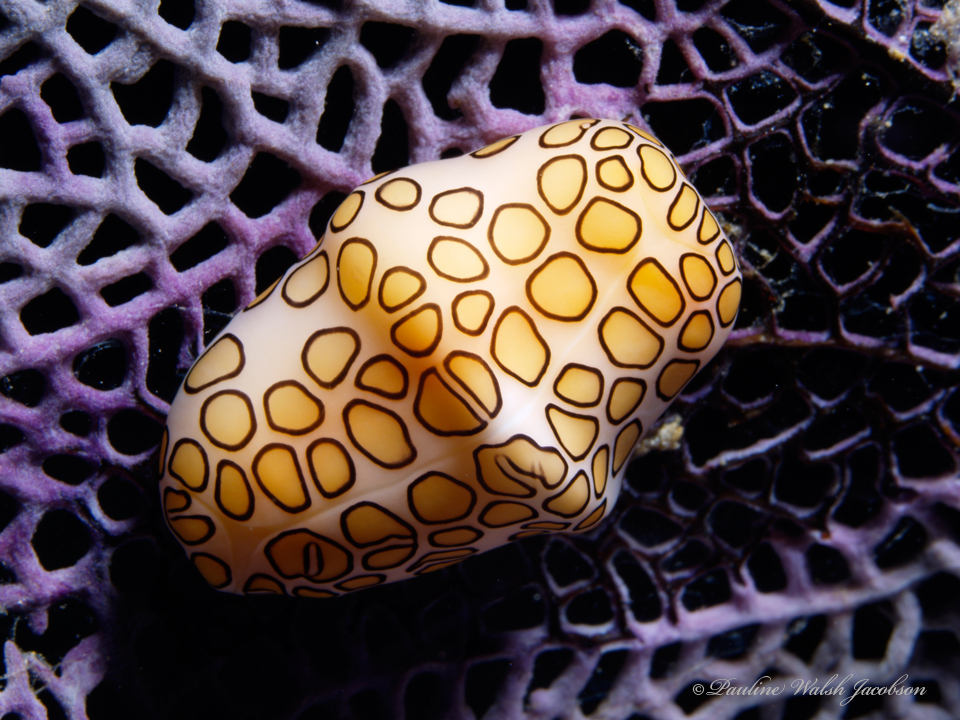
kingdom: Animalia
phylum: Mollusca
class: Gastropoda
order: Littorinimorpha
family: Ovulidae
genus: Cyphoma
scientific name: Cyphoma gibbosum
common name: Flamingo tongue
